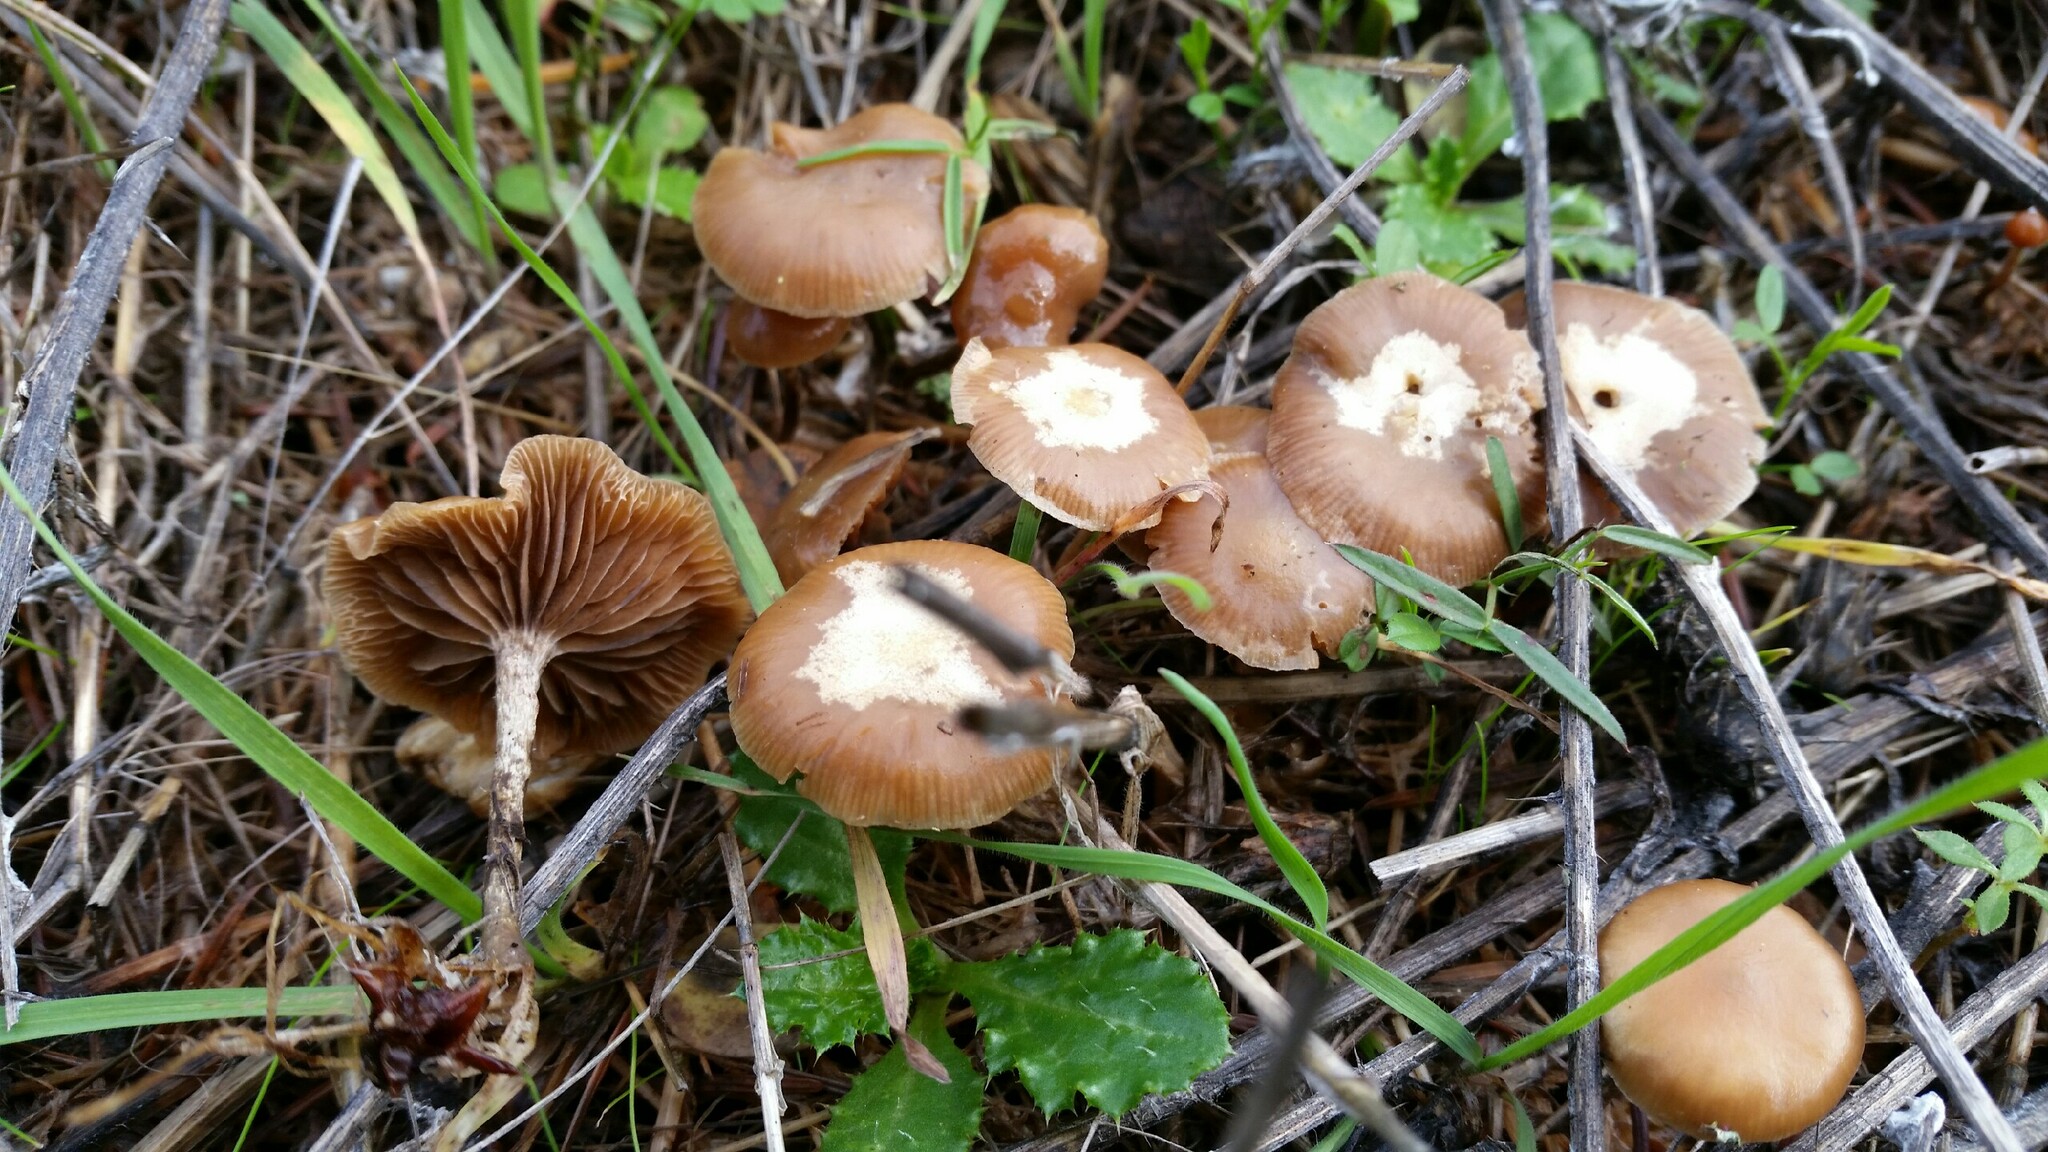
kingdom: Fungi
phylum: Basidiomycota
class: Agaricomycetes
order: Agaricales
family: Tubariaceae
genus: Tubaria
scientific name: Tubaria furfuracea
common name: Scurfy twiglet
